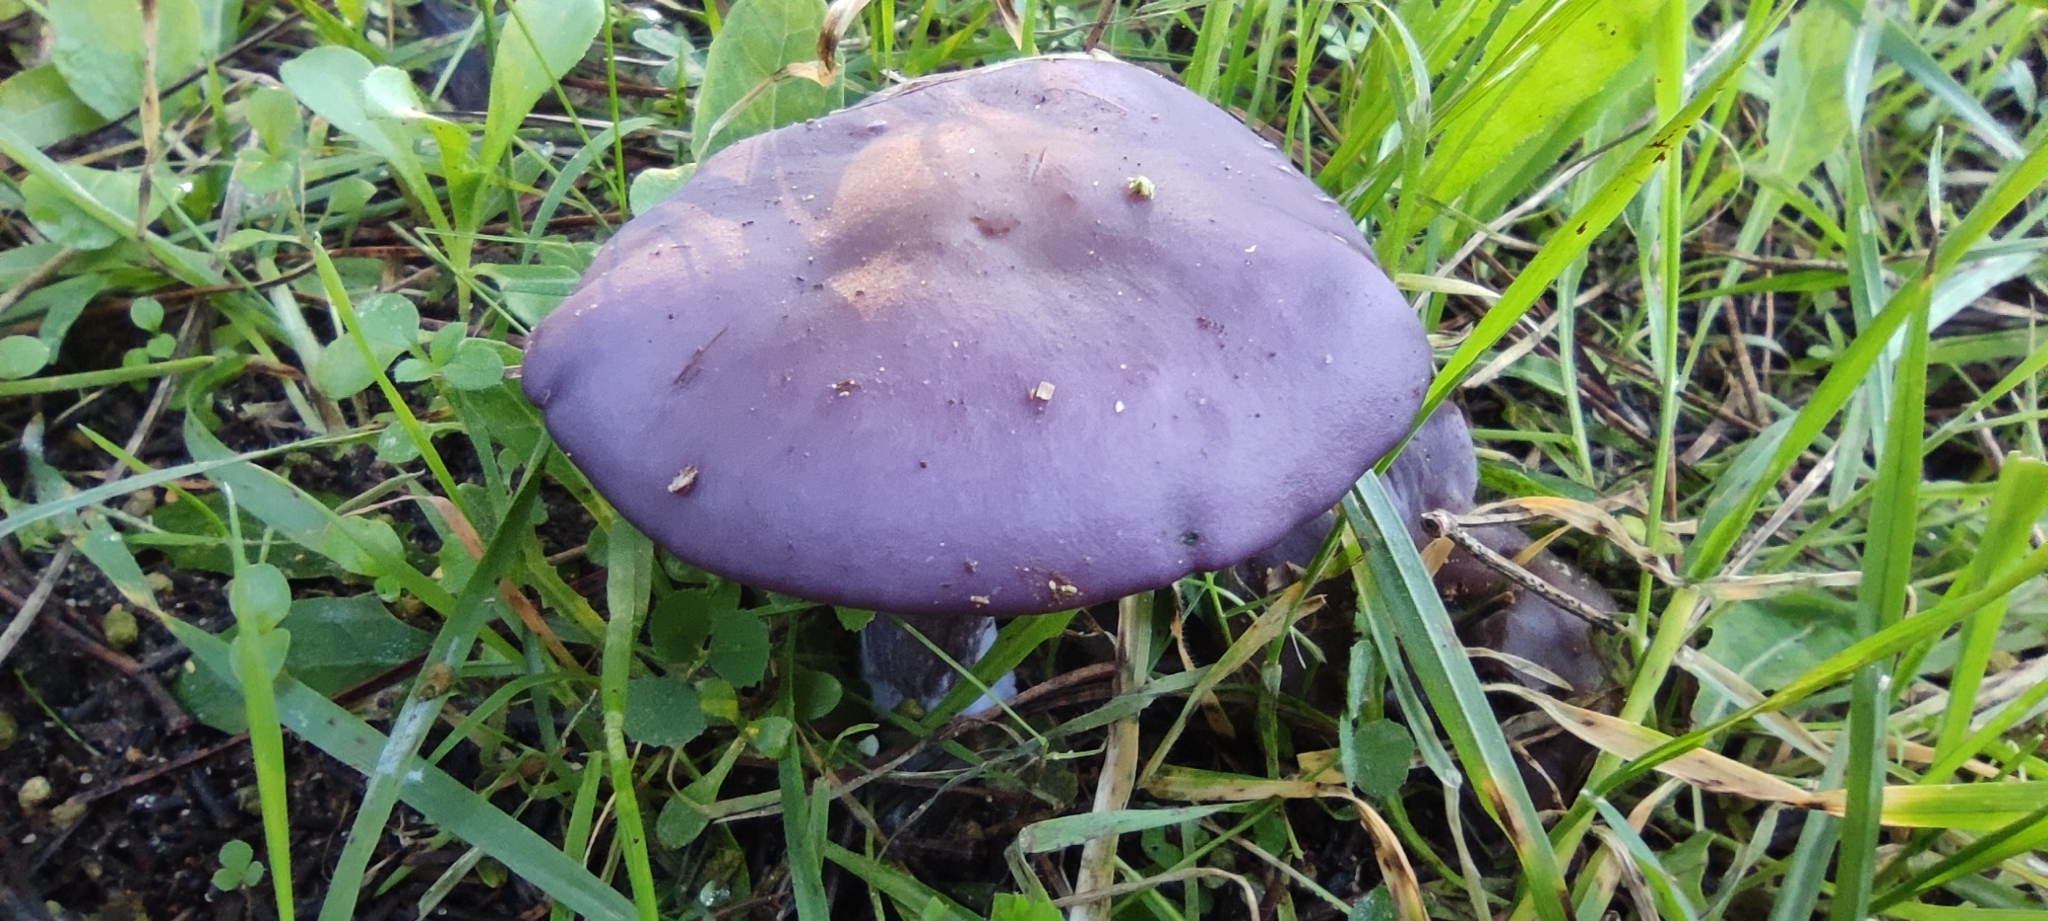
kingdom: Fungi
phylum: Basidiomycota
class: Agaricomycetes
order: Agaricales
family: Tricholomataceae
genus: Collybia
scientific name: Collybia
